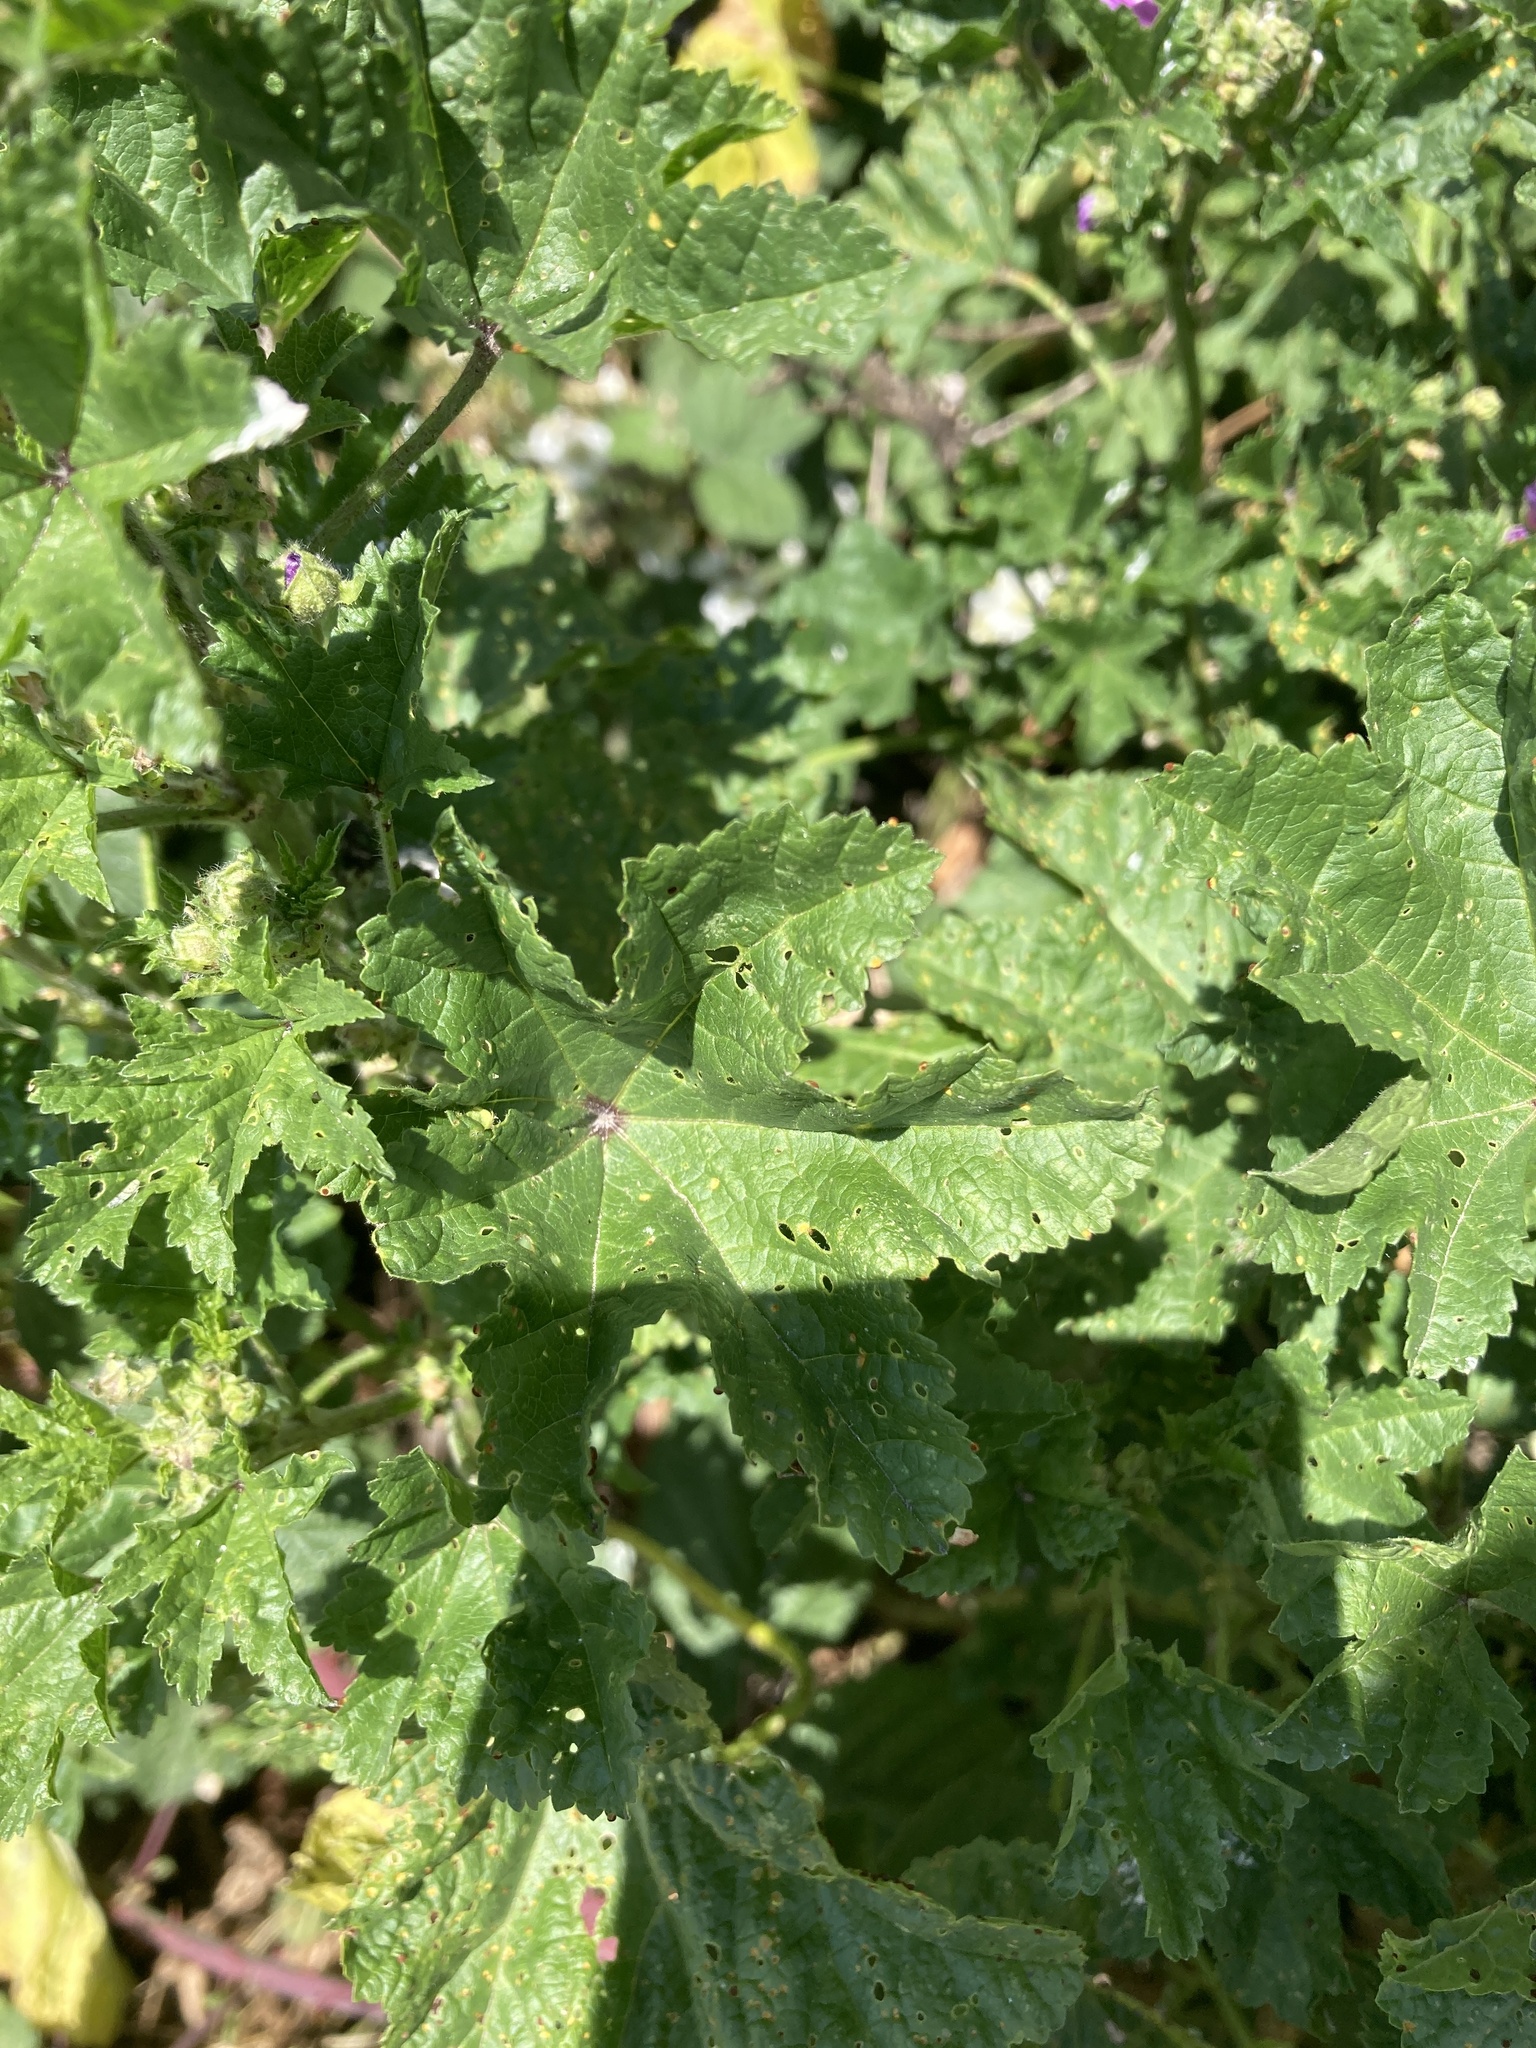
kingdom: Plantae
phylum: Tracheophyta
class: Magnoliopsida
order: Malvales
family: Malvaceae
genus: Malva
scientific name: Malva sylvestris
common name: Common mallow
